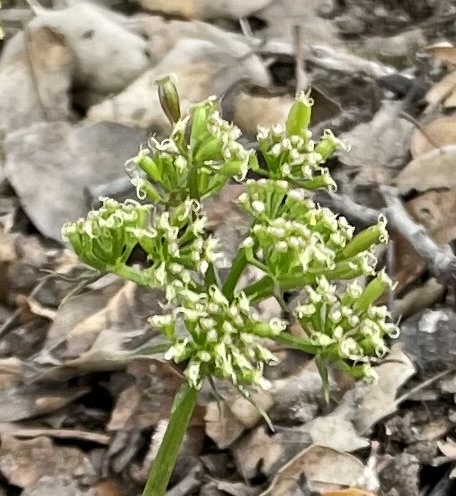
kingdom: Plantae
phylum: Tracheophyta
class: Magnoliopsida
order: Apiales
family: Apiaceae
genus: Lomatium
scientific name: Lomatium parvifolium
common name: Small-leaf lomatium
